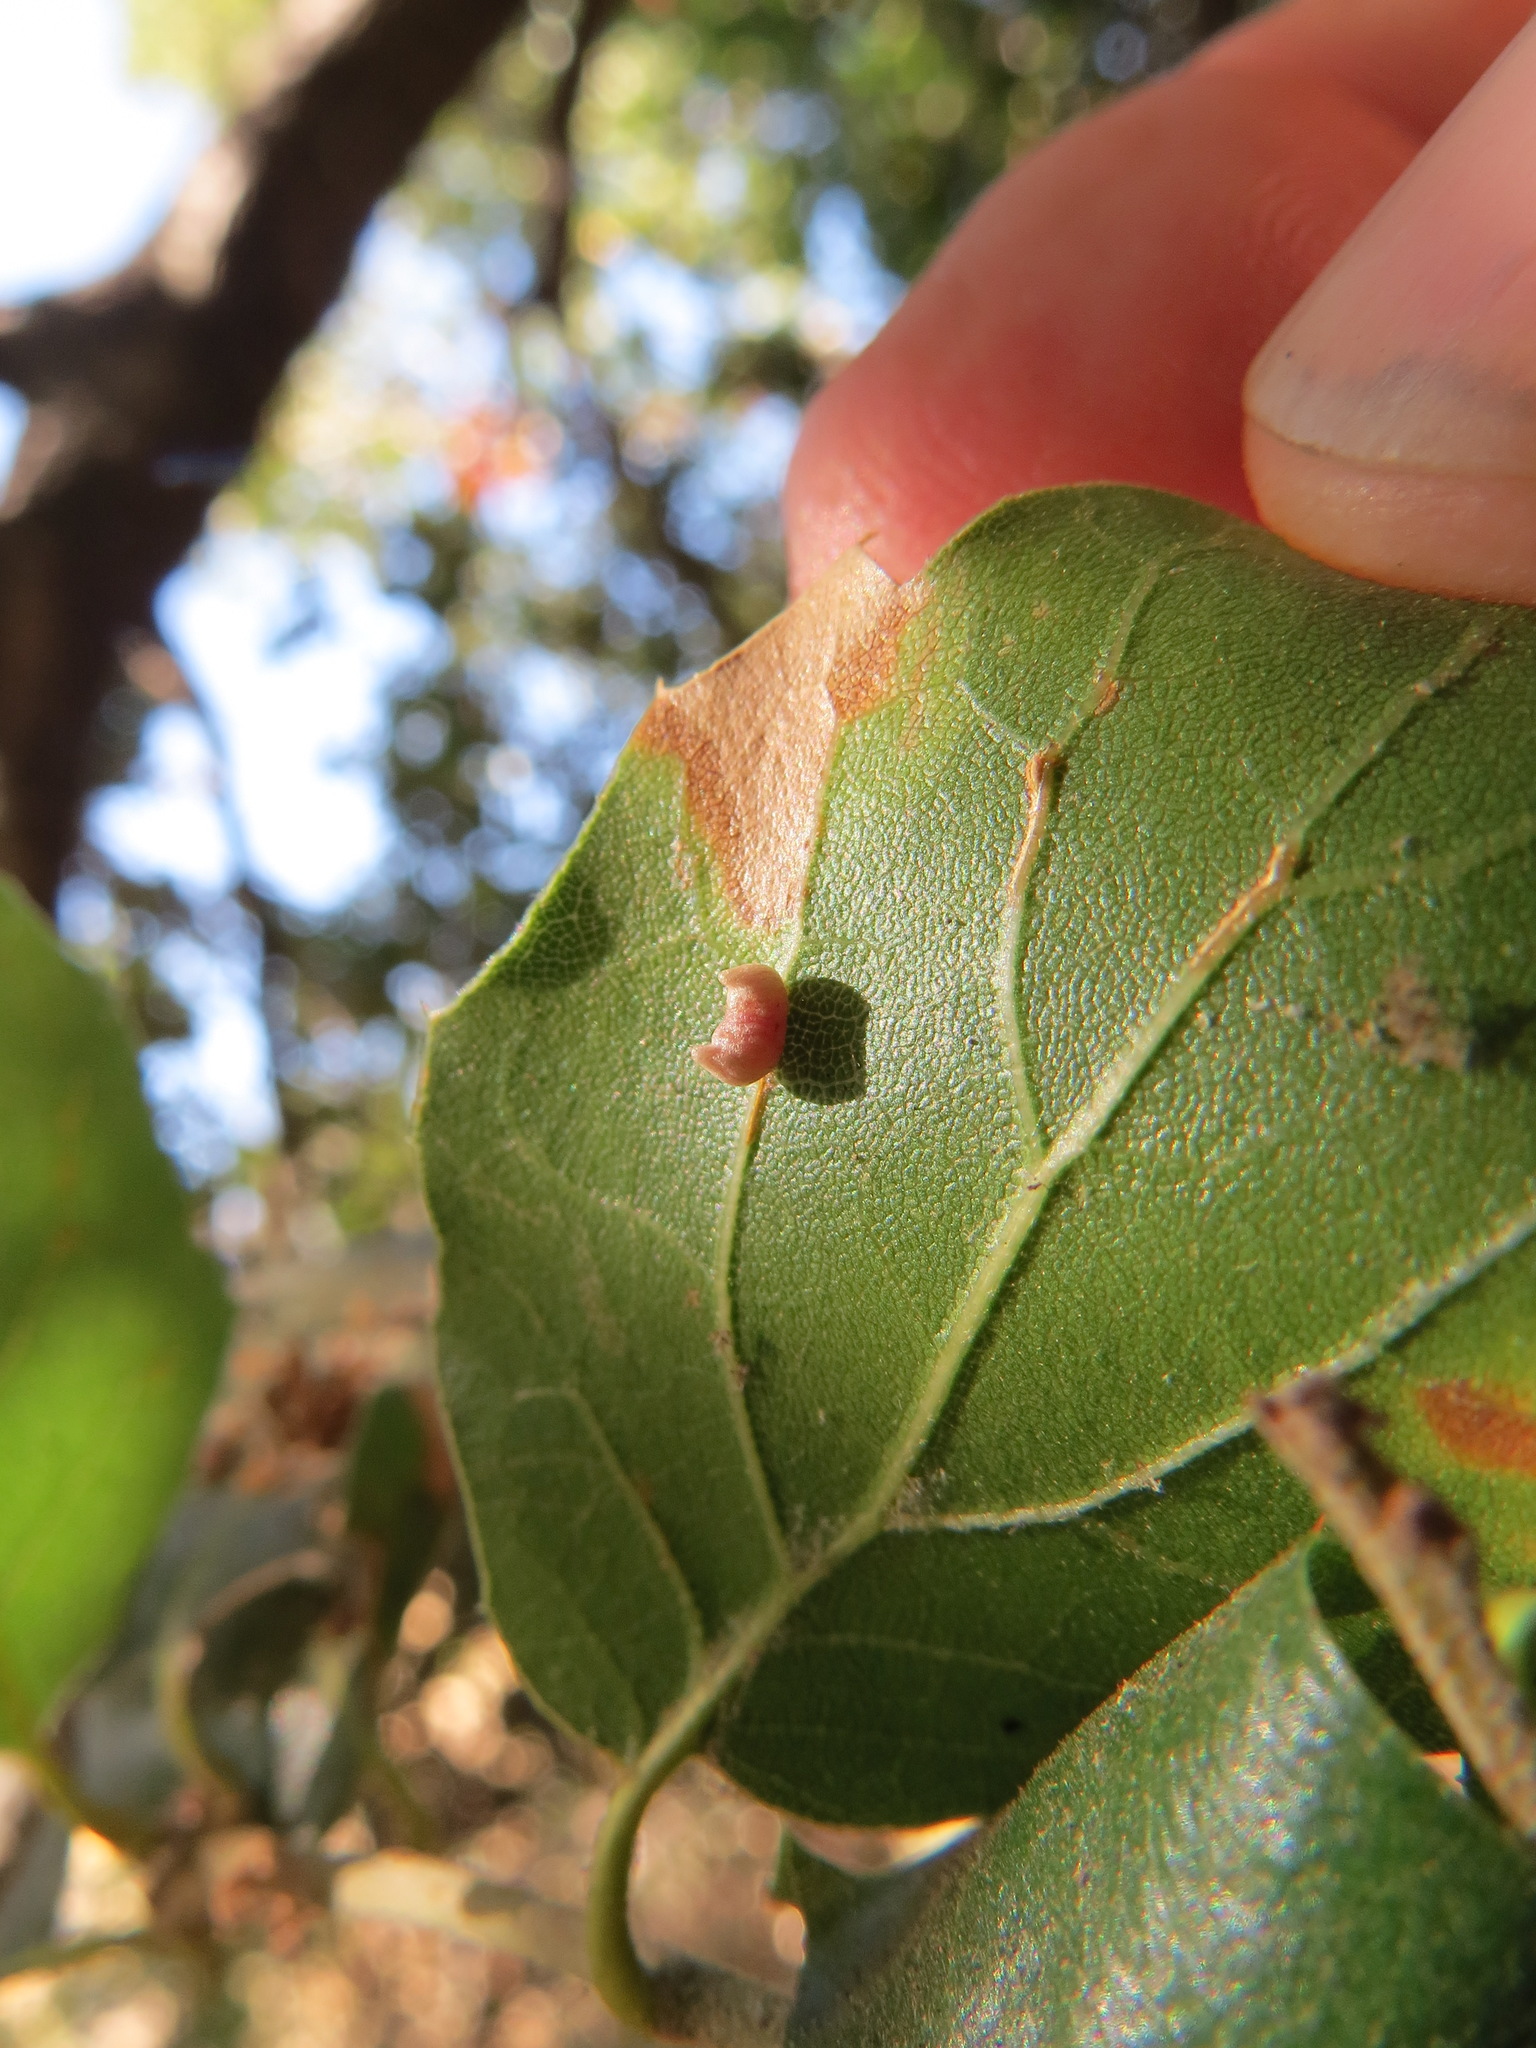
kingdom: Animalia
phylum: Arthropoda
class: Insecta
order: Hymenoptera
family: Cynipidae
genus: Dryocosmus
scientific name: Dryocosmus
